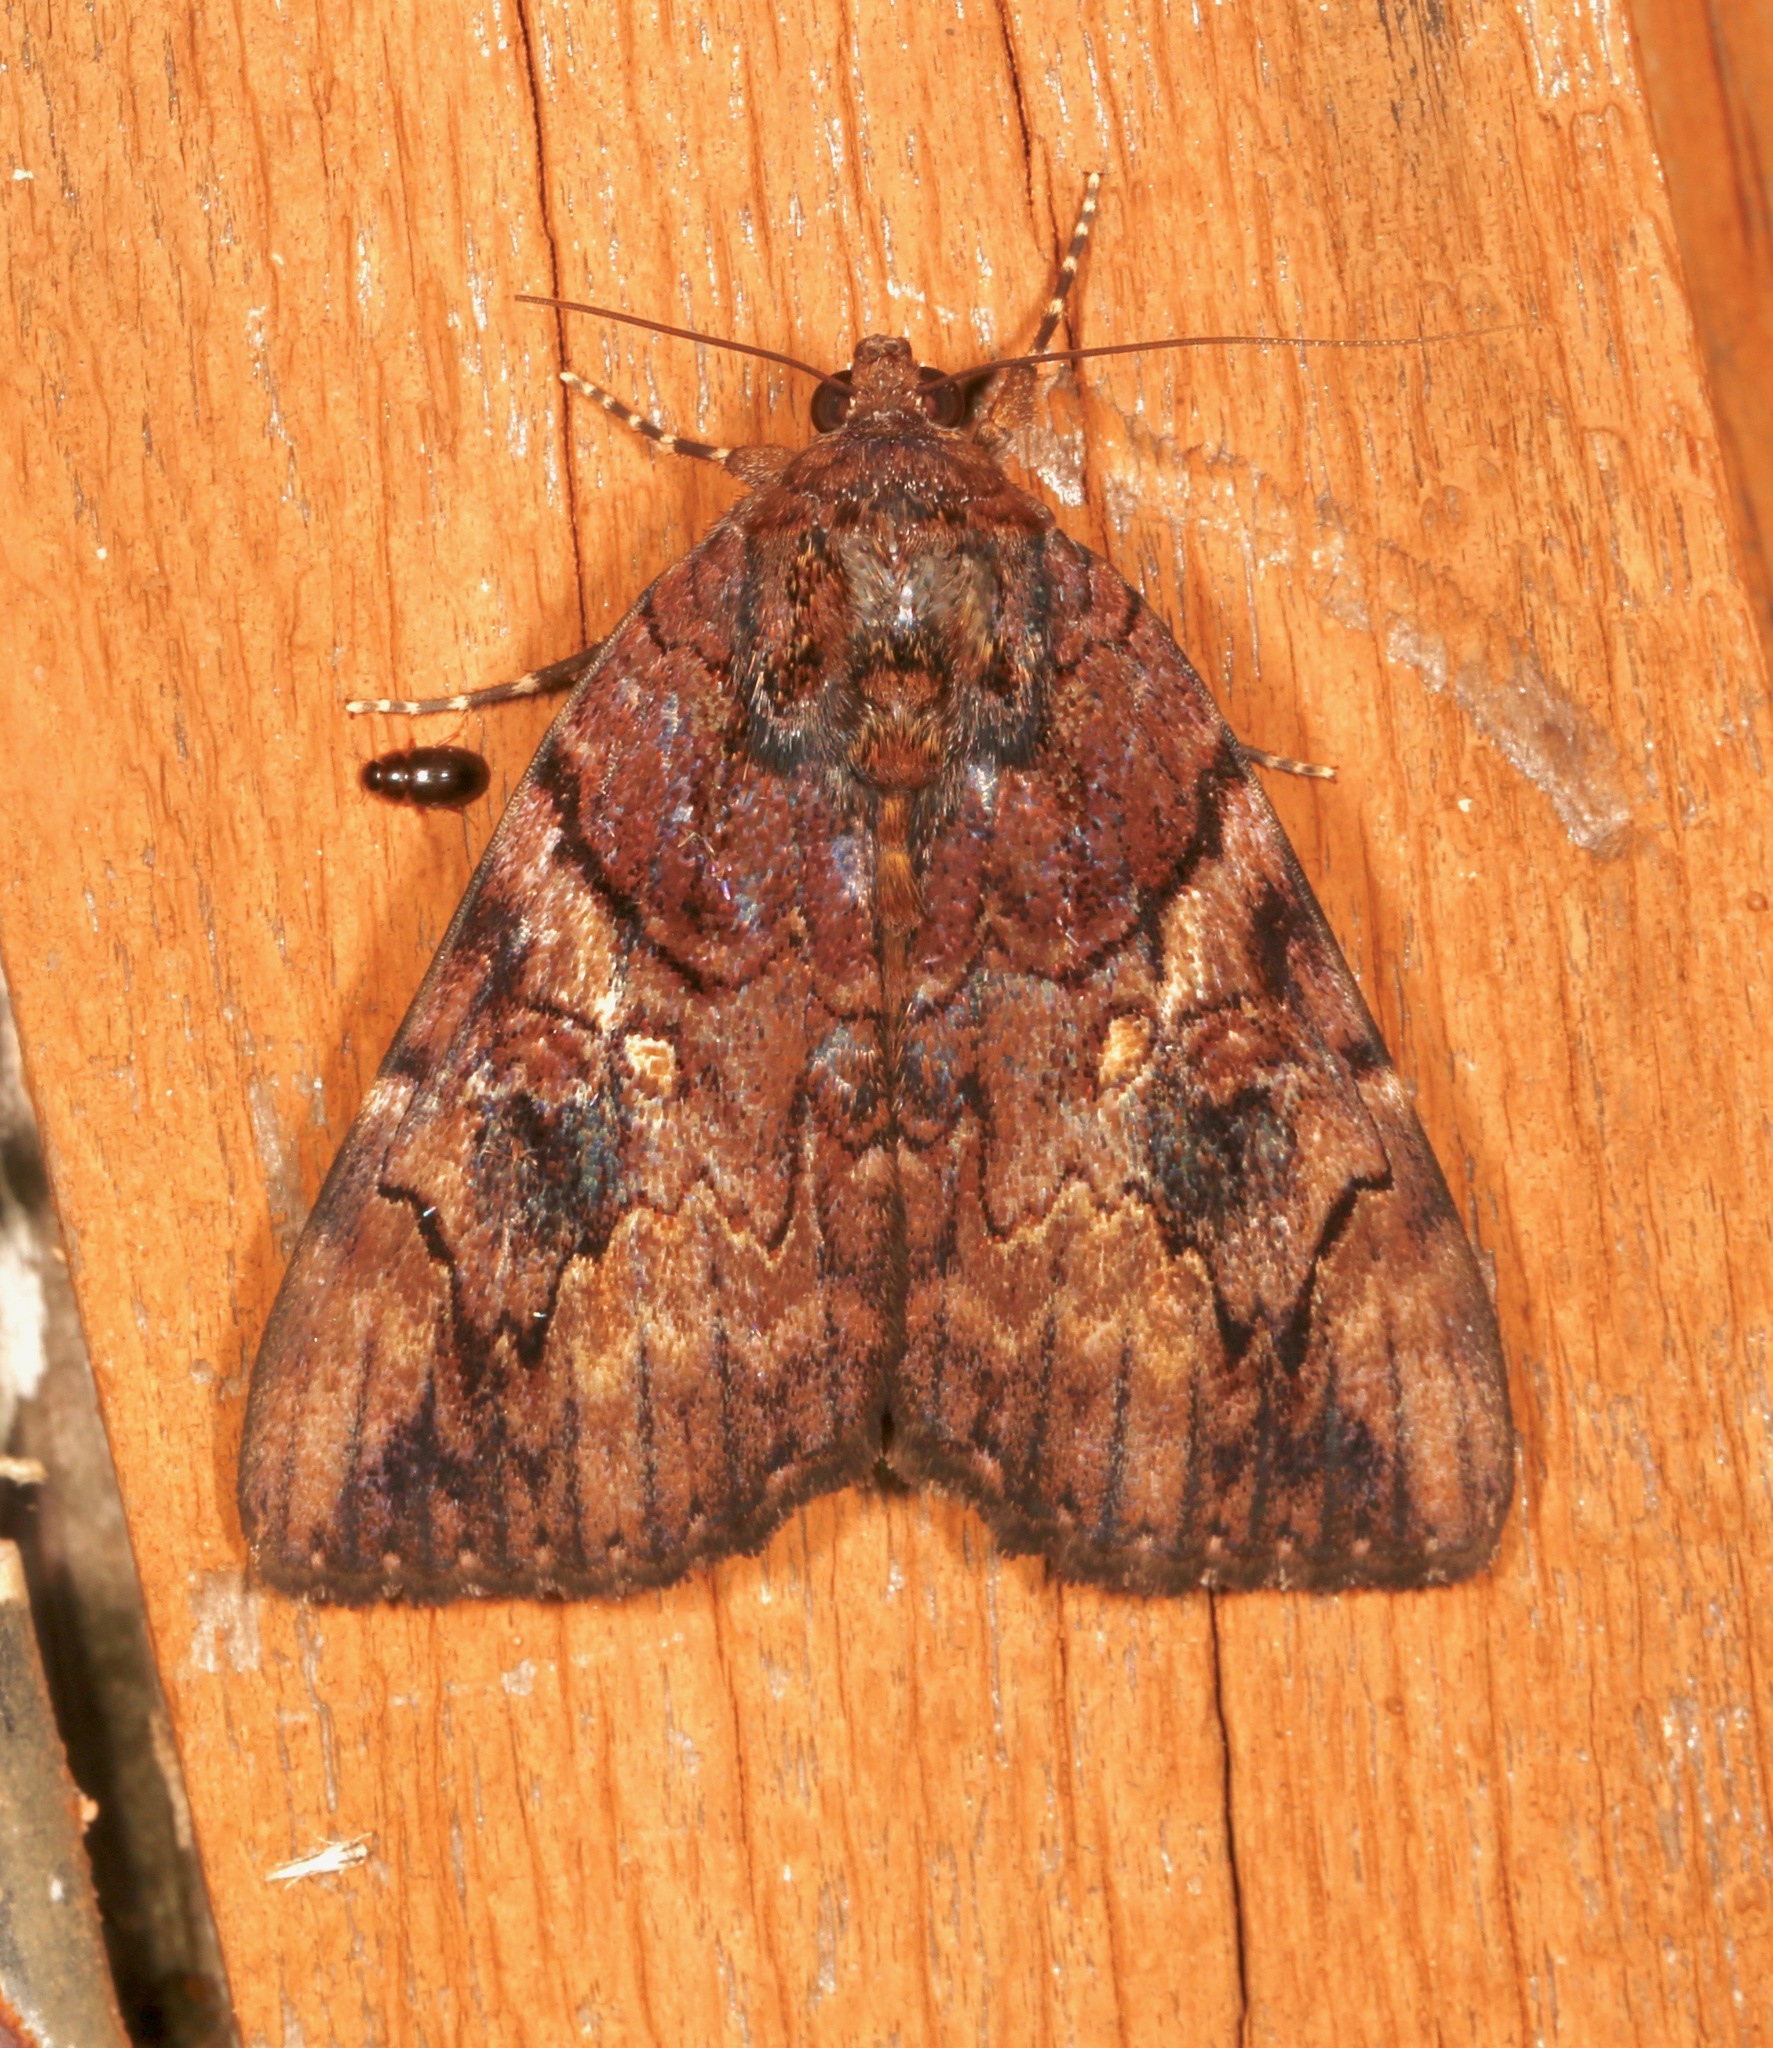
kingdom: Animalia
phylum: Arthropoda
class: Insecta
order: Lepidoptera
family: Erebidae
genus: Catocala
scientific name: Catocala muliercula
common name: The little wife underwing
